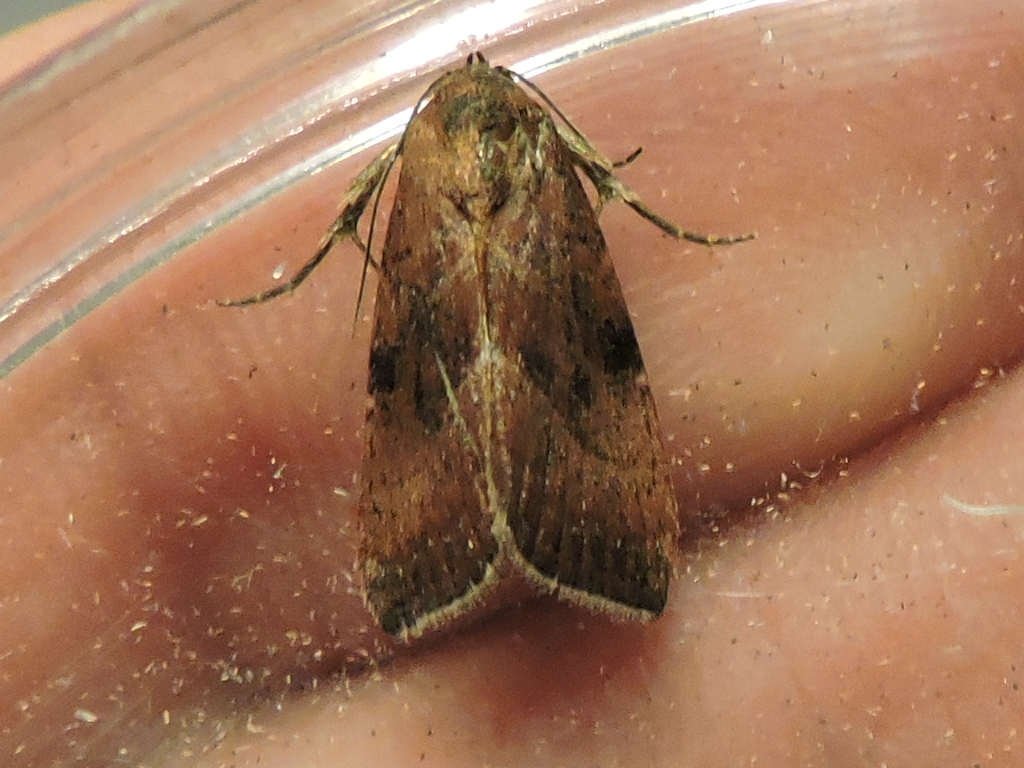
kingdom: Animalia
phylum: Arthropoda
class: Insecta
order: Lepidoptera
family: Noctuidae
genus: Galgula
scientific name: Galgula partita
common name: Wedgeling
